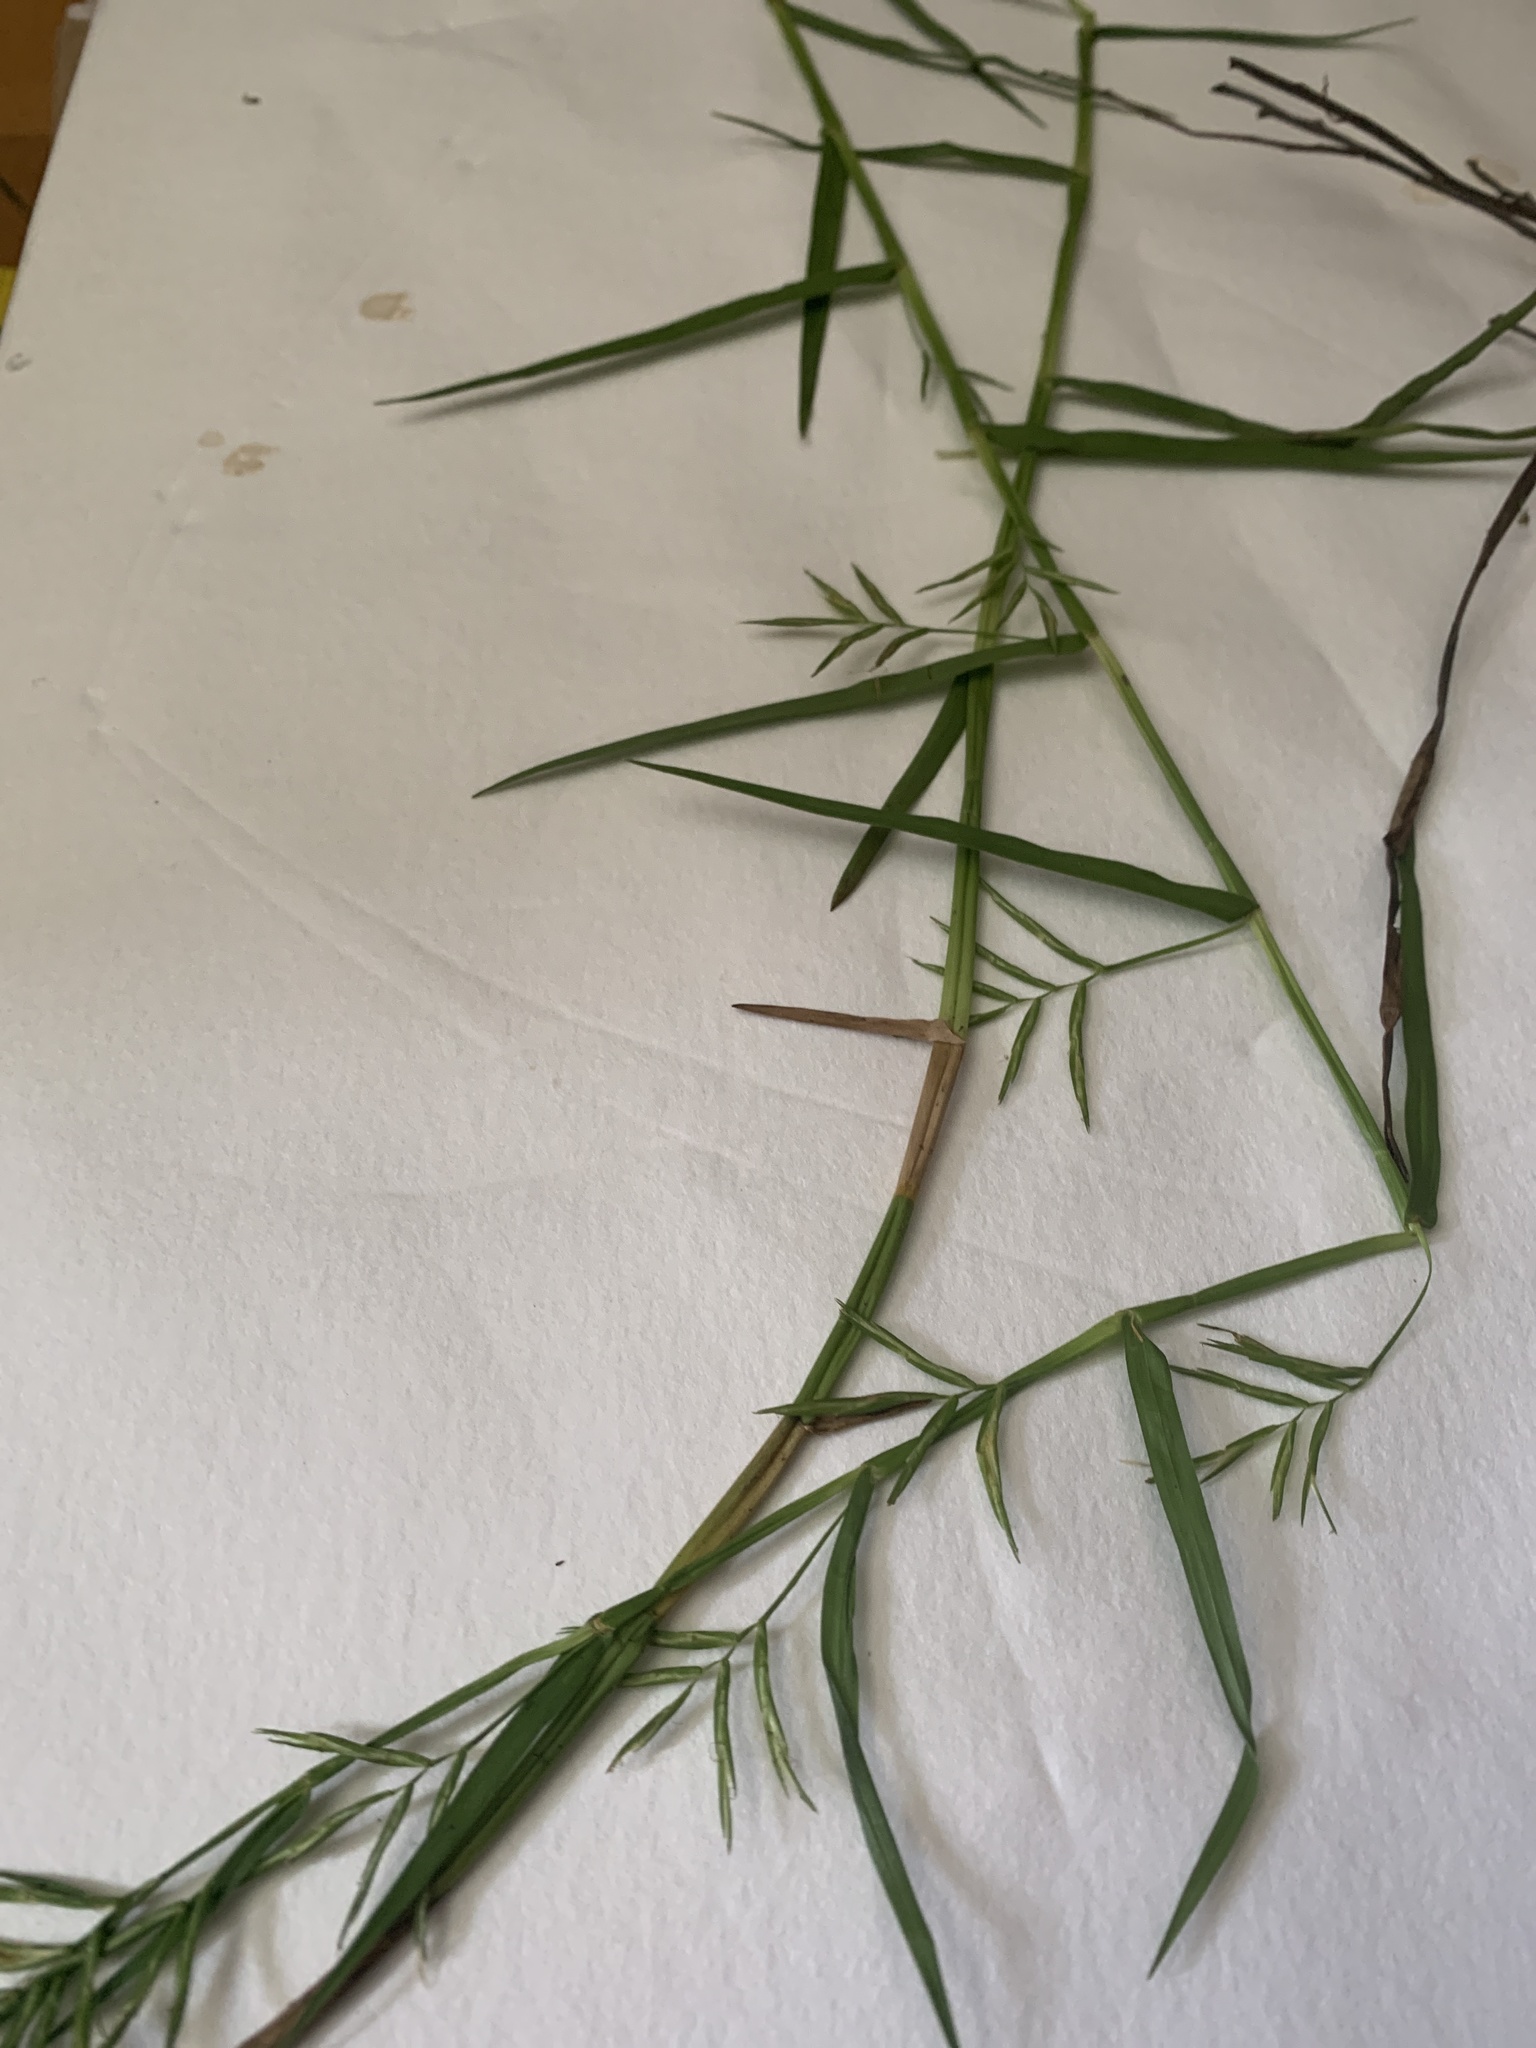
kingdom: Plantae
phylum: Tracheophyta
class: Liliopsida
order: Poales
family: Cyperaceae
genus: Dulichium
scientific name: Dulichium arundinaceum
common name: Three-way sedge
